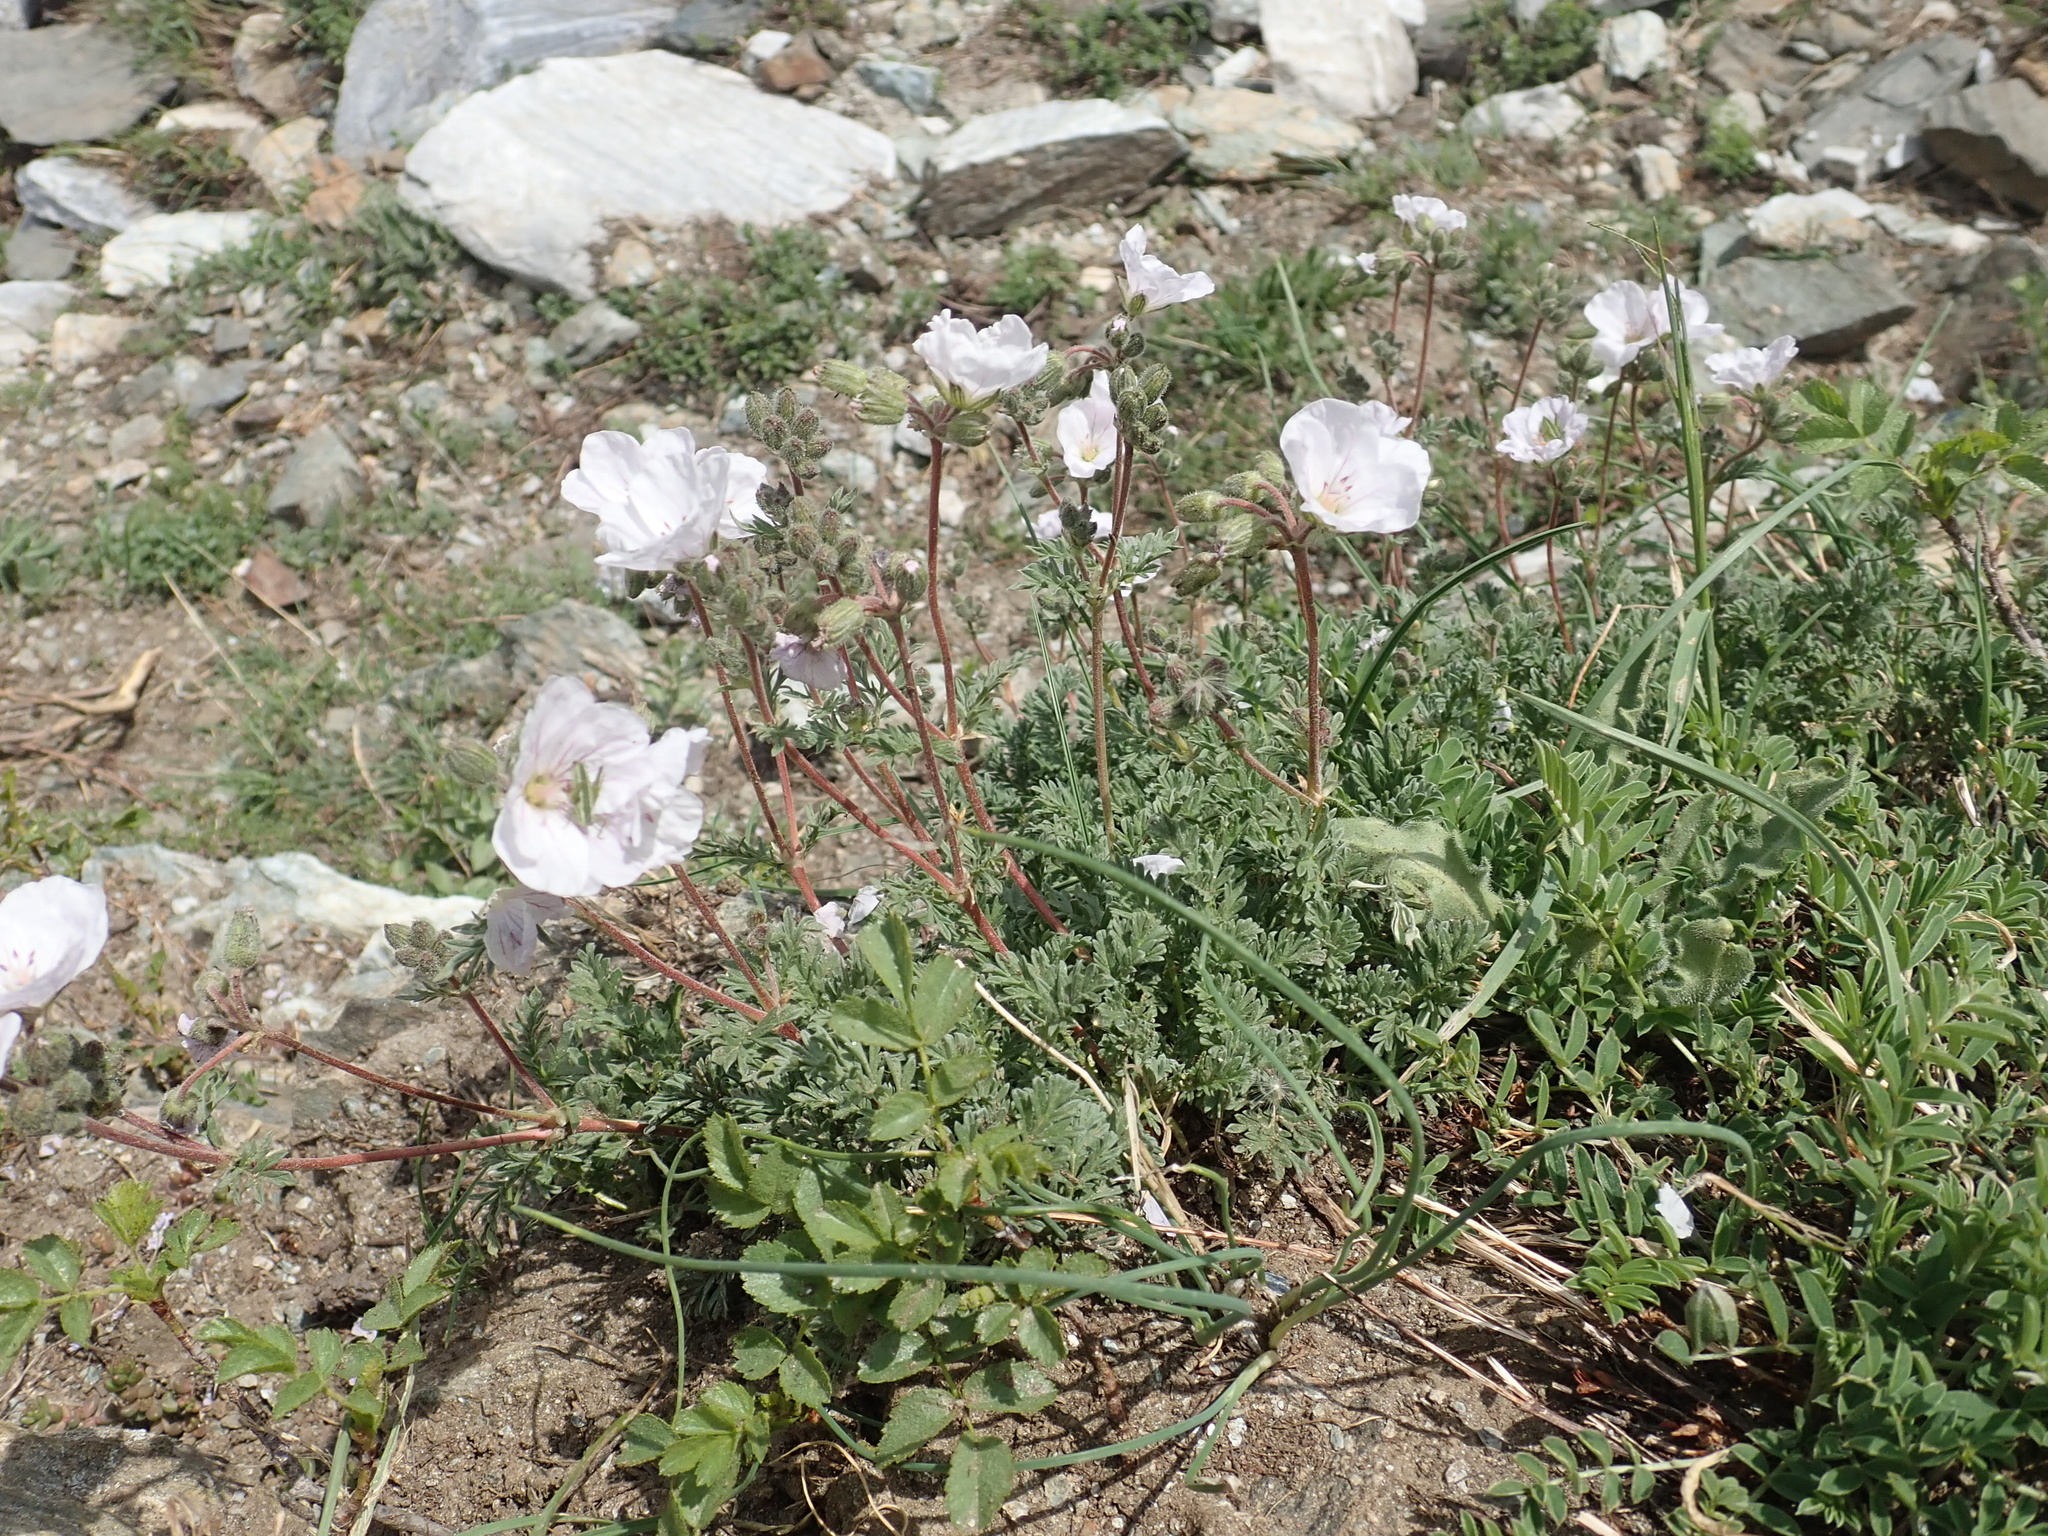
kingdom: Plantae
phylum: Tracheophyta
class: Magnoliopsida
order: Geraniales
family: Geraniaceae
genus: Erodium
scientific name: Erodium sibthorpianum
